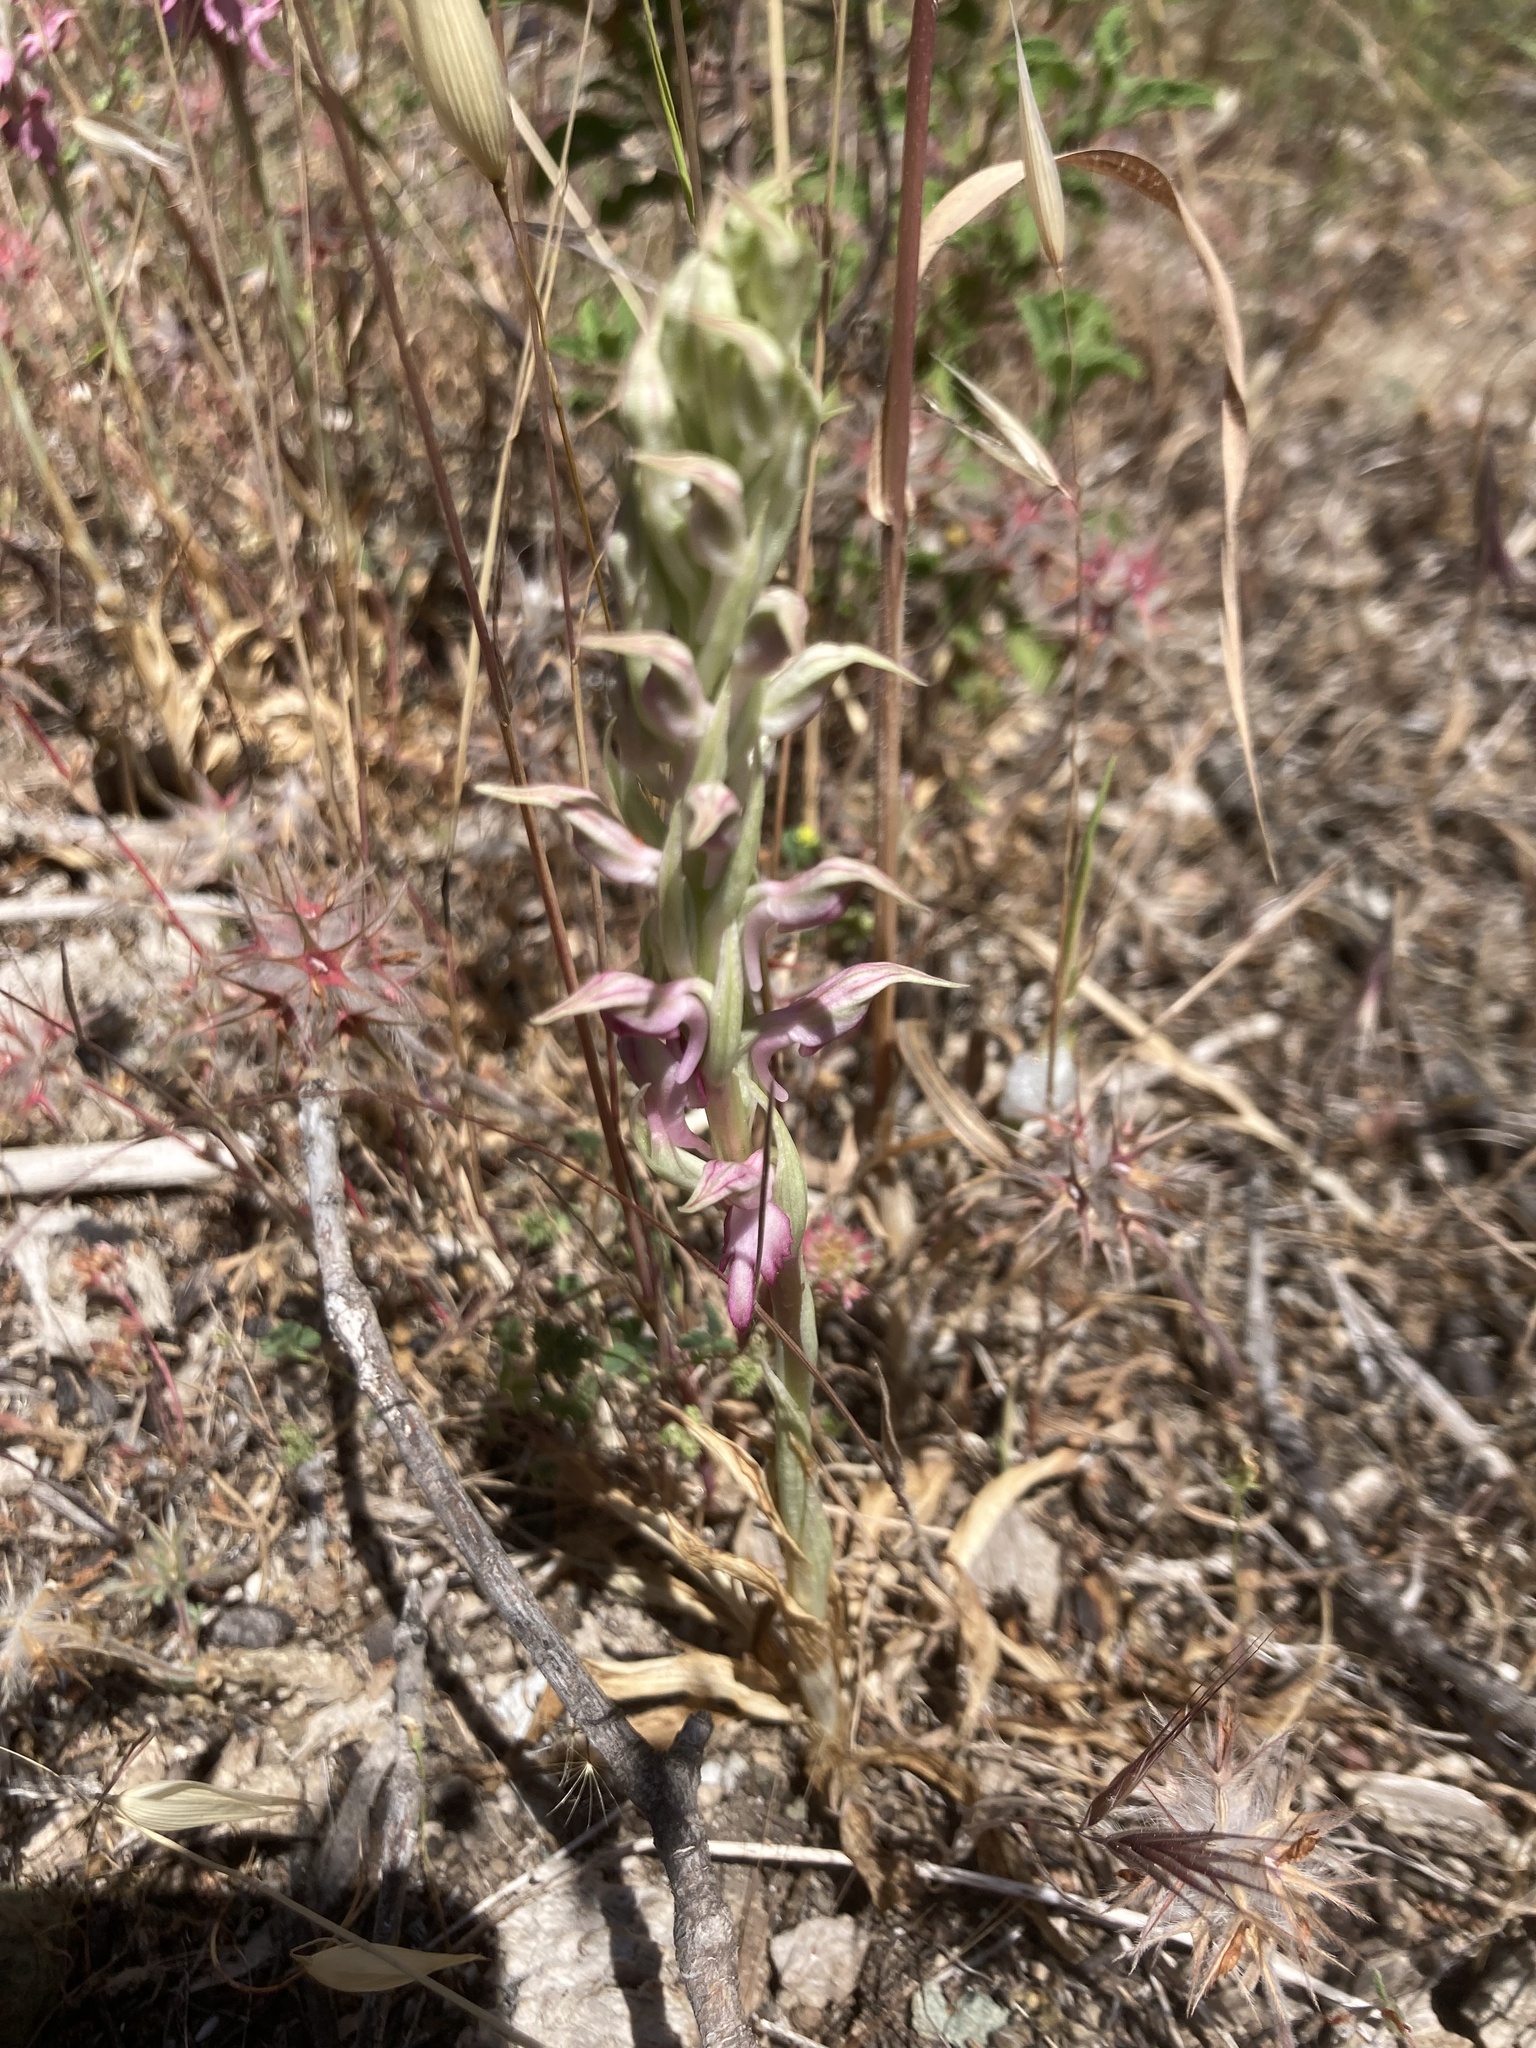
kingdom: Plantae
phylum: Tracheophyta
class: Liliopsida
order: Asparagales
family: Orchidaceae
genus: Anacamptis
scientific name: Anacamptis sancta
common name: Holy orchid
